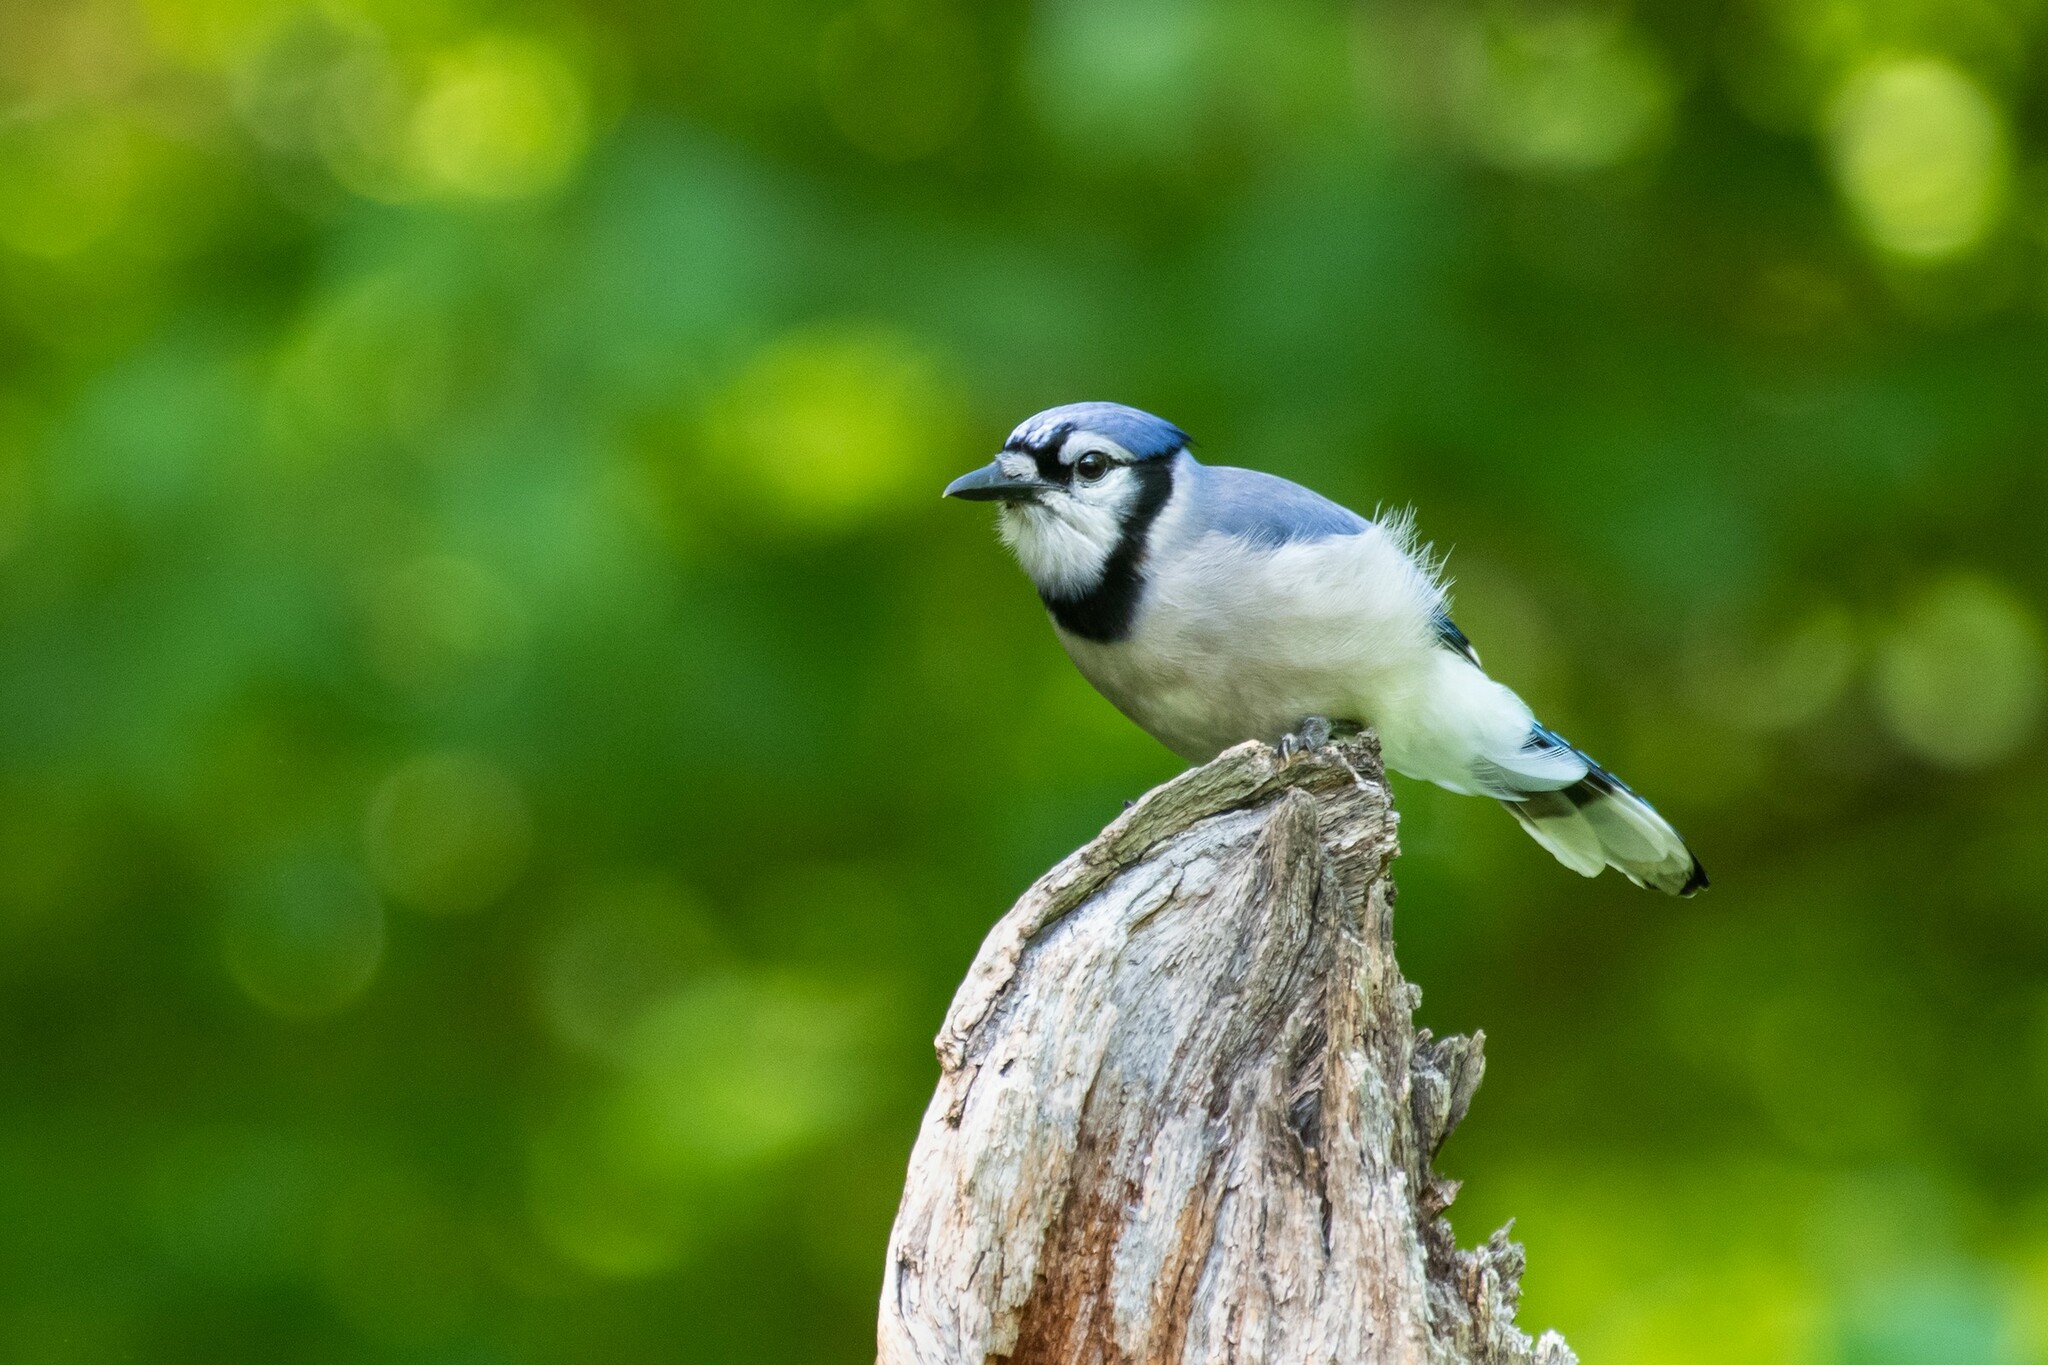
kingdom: Animalia
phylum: Chordata
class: Aves
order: Passeriformes
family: Corvidae
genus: Cyanocitta
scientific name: Cyanocitta cristata
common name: Blue jay
